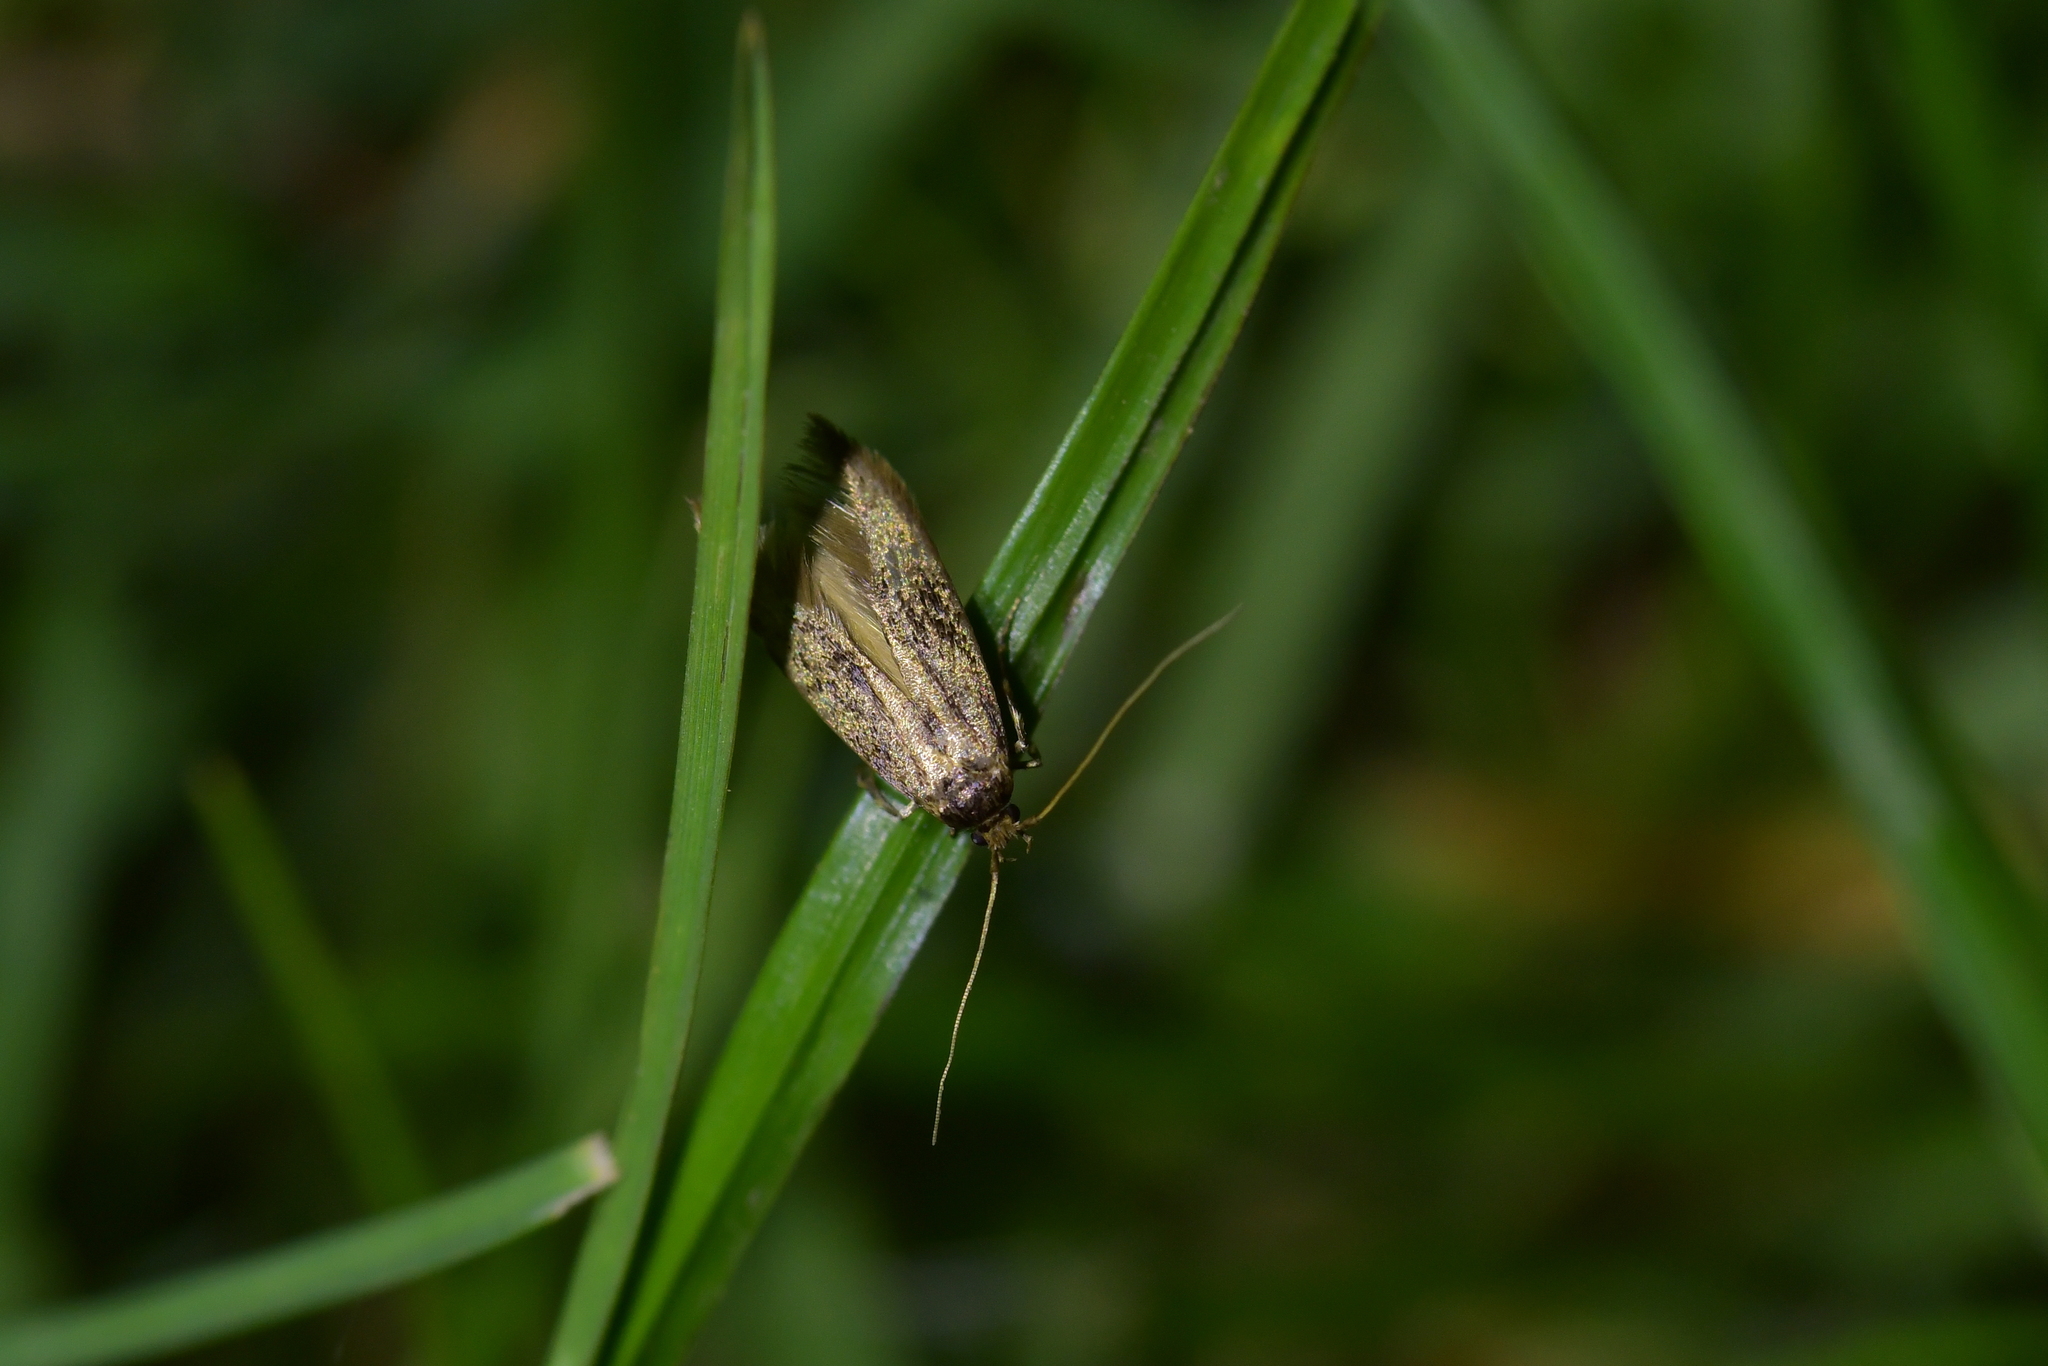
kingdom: Animalia
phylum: Arthropoda
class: Insecta
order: Lepidoptera
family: Tineidae
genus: Opogona
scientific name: Opogona omoscopa
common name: Moth
